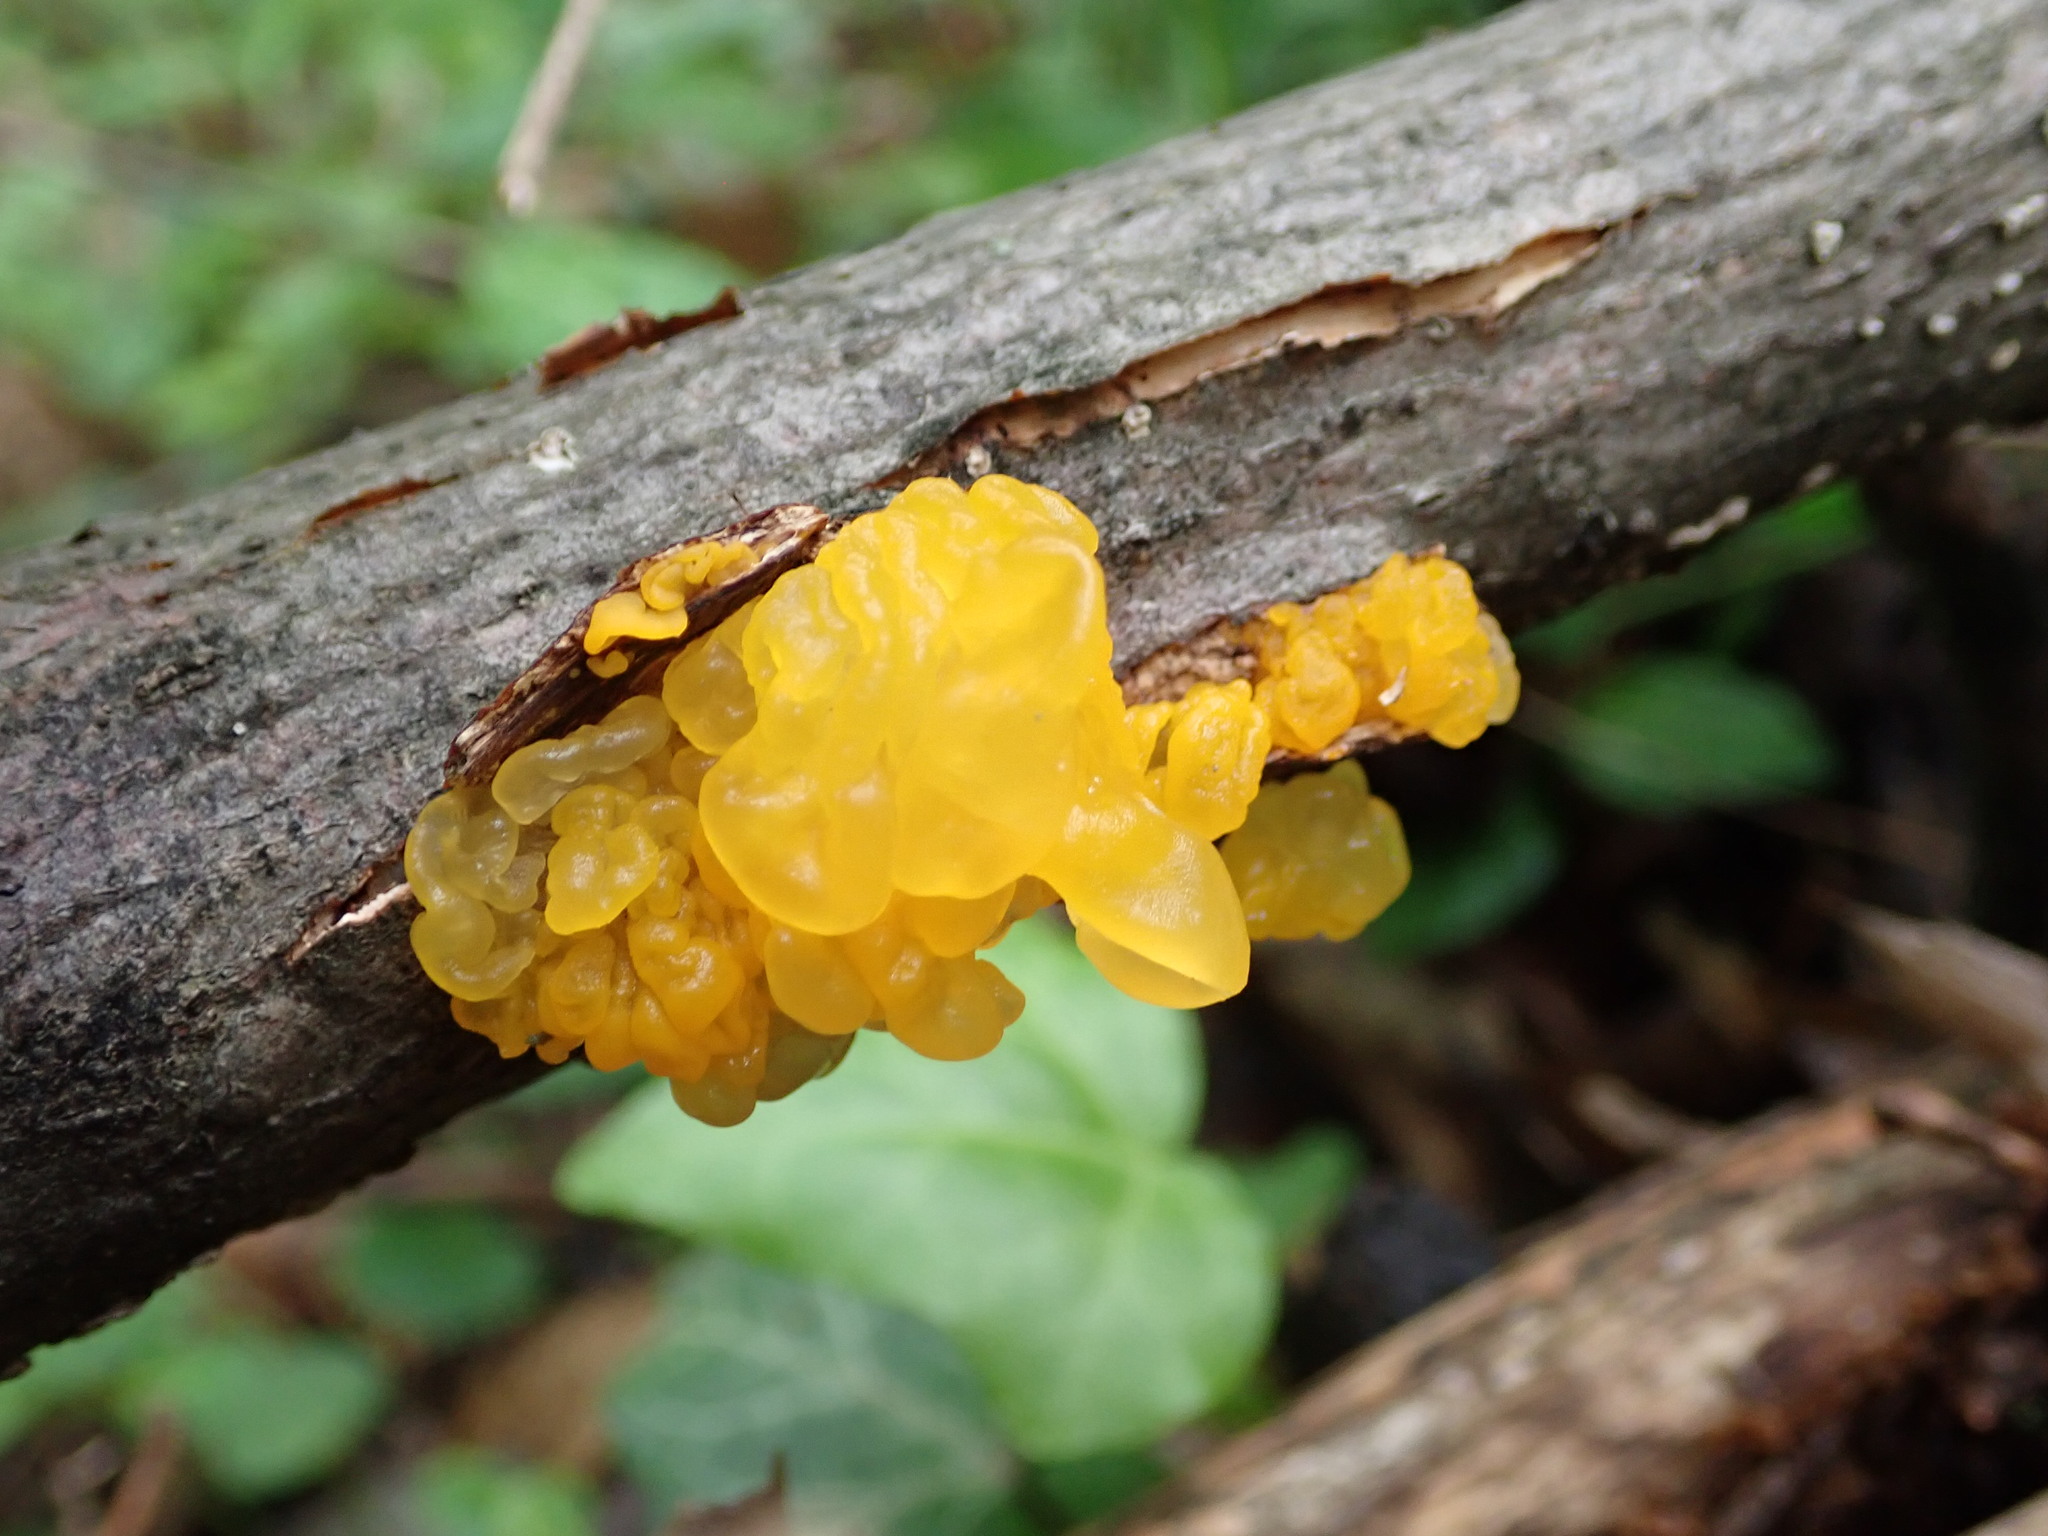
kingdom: Fungi
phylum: Basidiomycota
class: Tremellomycetes
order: Tremellales
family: Tremellaceae
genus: Tremella
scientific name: Tremella mesenterica
